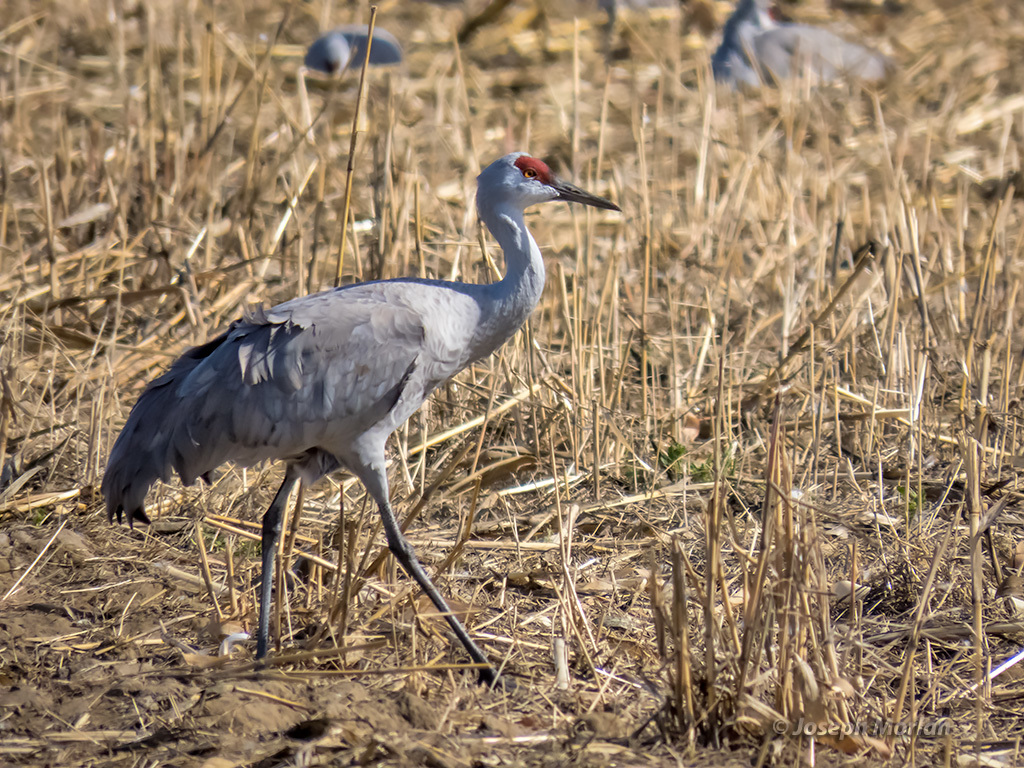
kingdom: Animalia
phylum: Chordata
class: Aves
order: Gruiformes
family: Gruidae
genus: Grus
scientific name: Grus canadensis
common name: Sandhill crane
